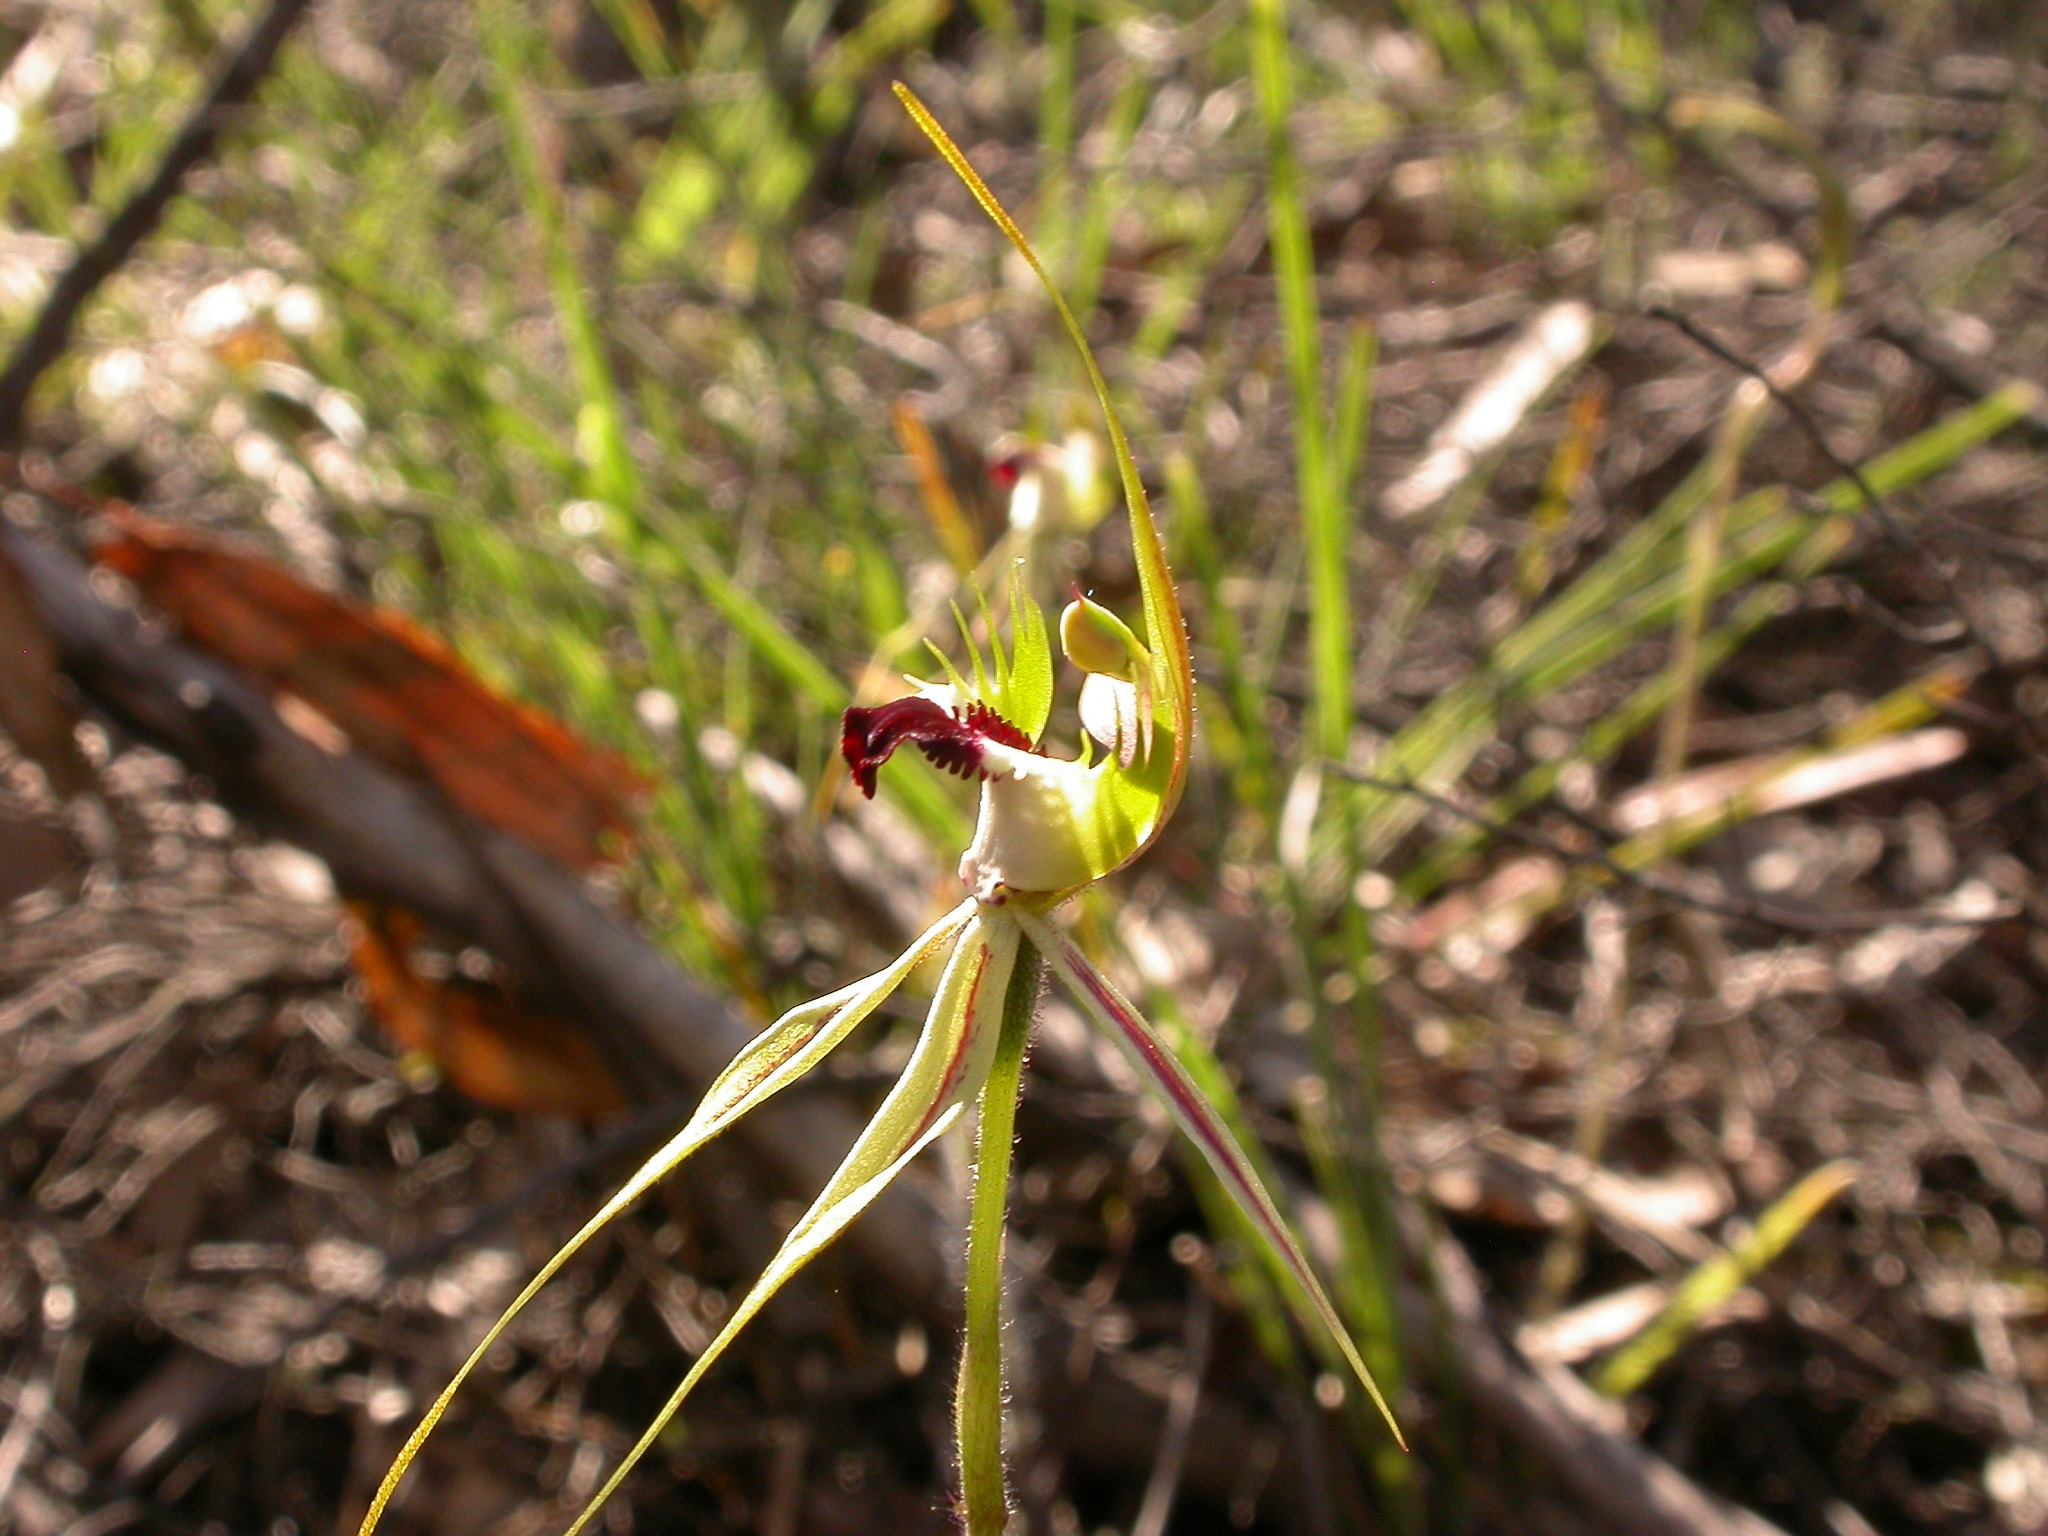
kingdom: Plantae
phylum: Tracheophyta
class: Liliopsida
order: Asparagales
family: Orchidaceae
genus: Caladenia
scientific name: Caladenia atrovespa
